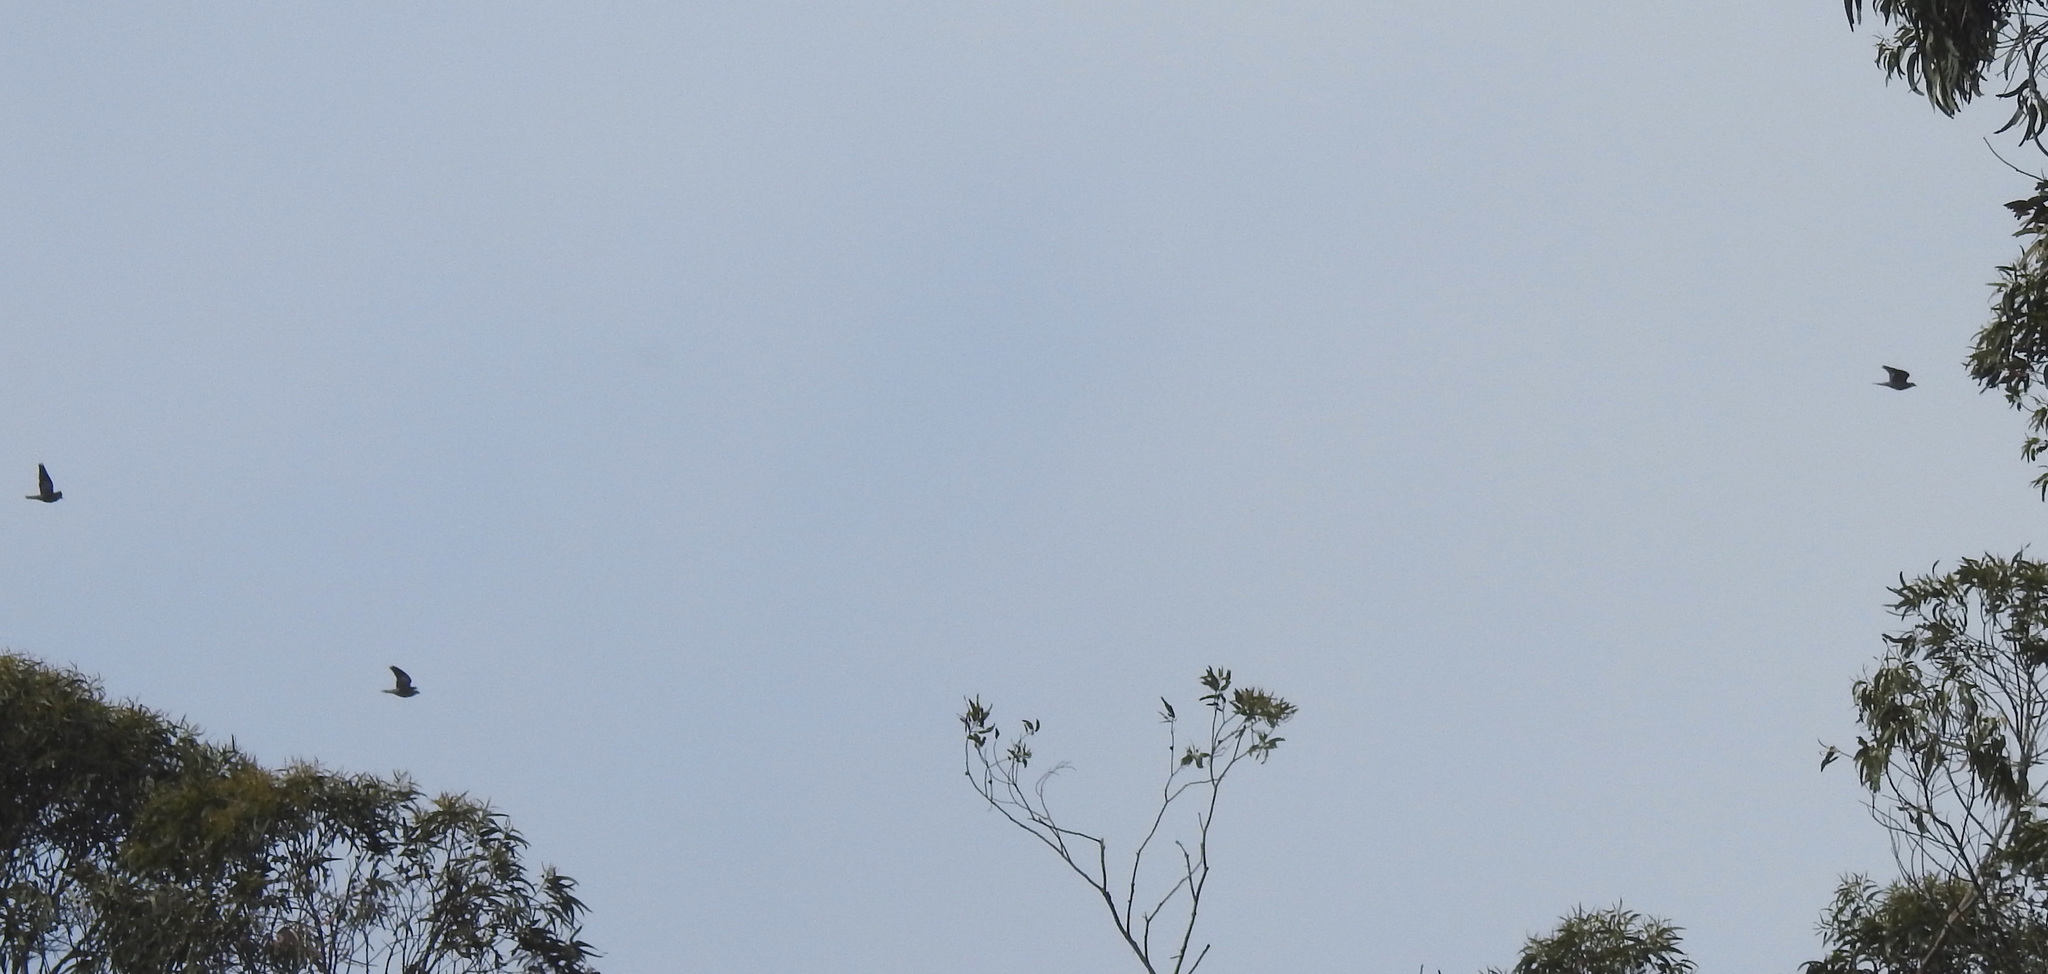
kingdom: Animalia
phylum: Chordata
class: Aves
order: Columbiformes
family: Columbidae
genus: Patagioenas
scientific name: Patagioenas fasciata
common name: Band-tailed pigeon
